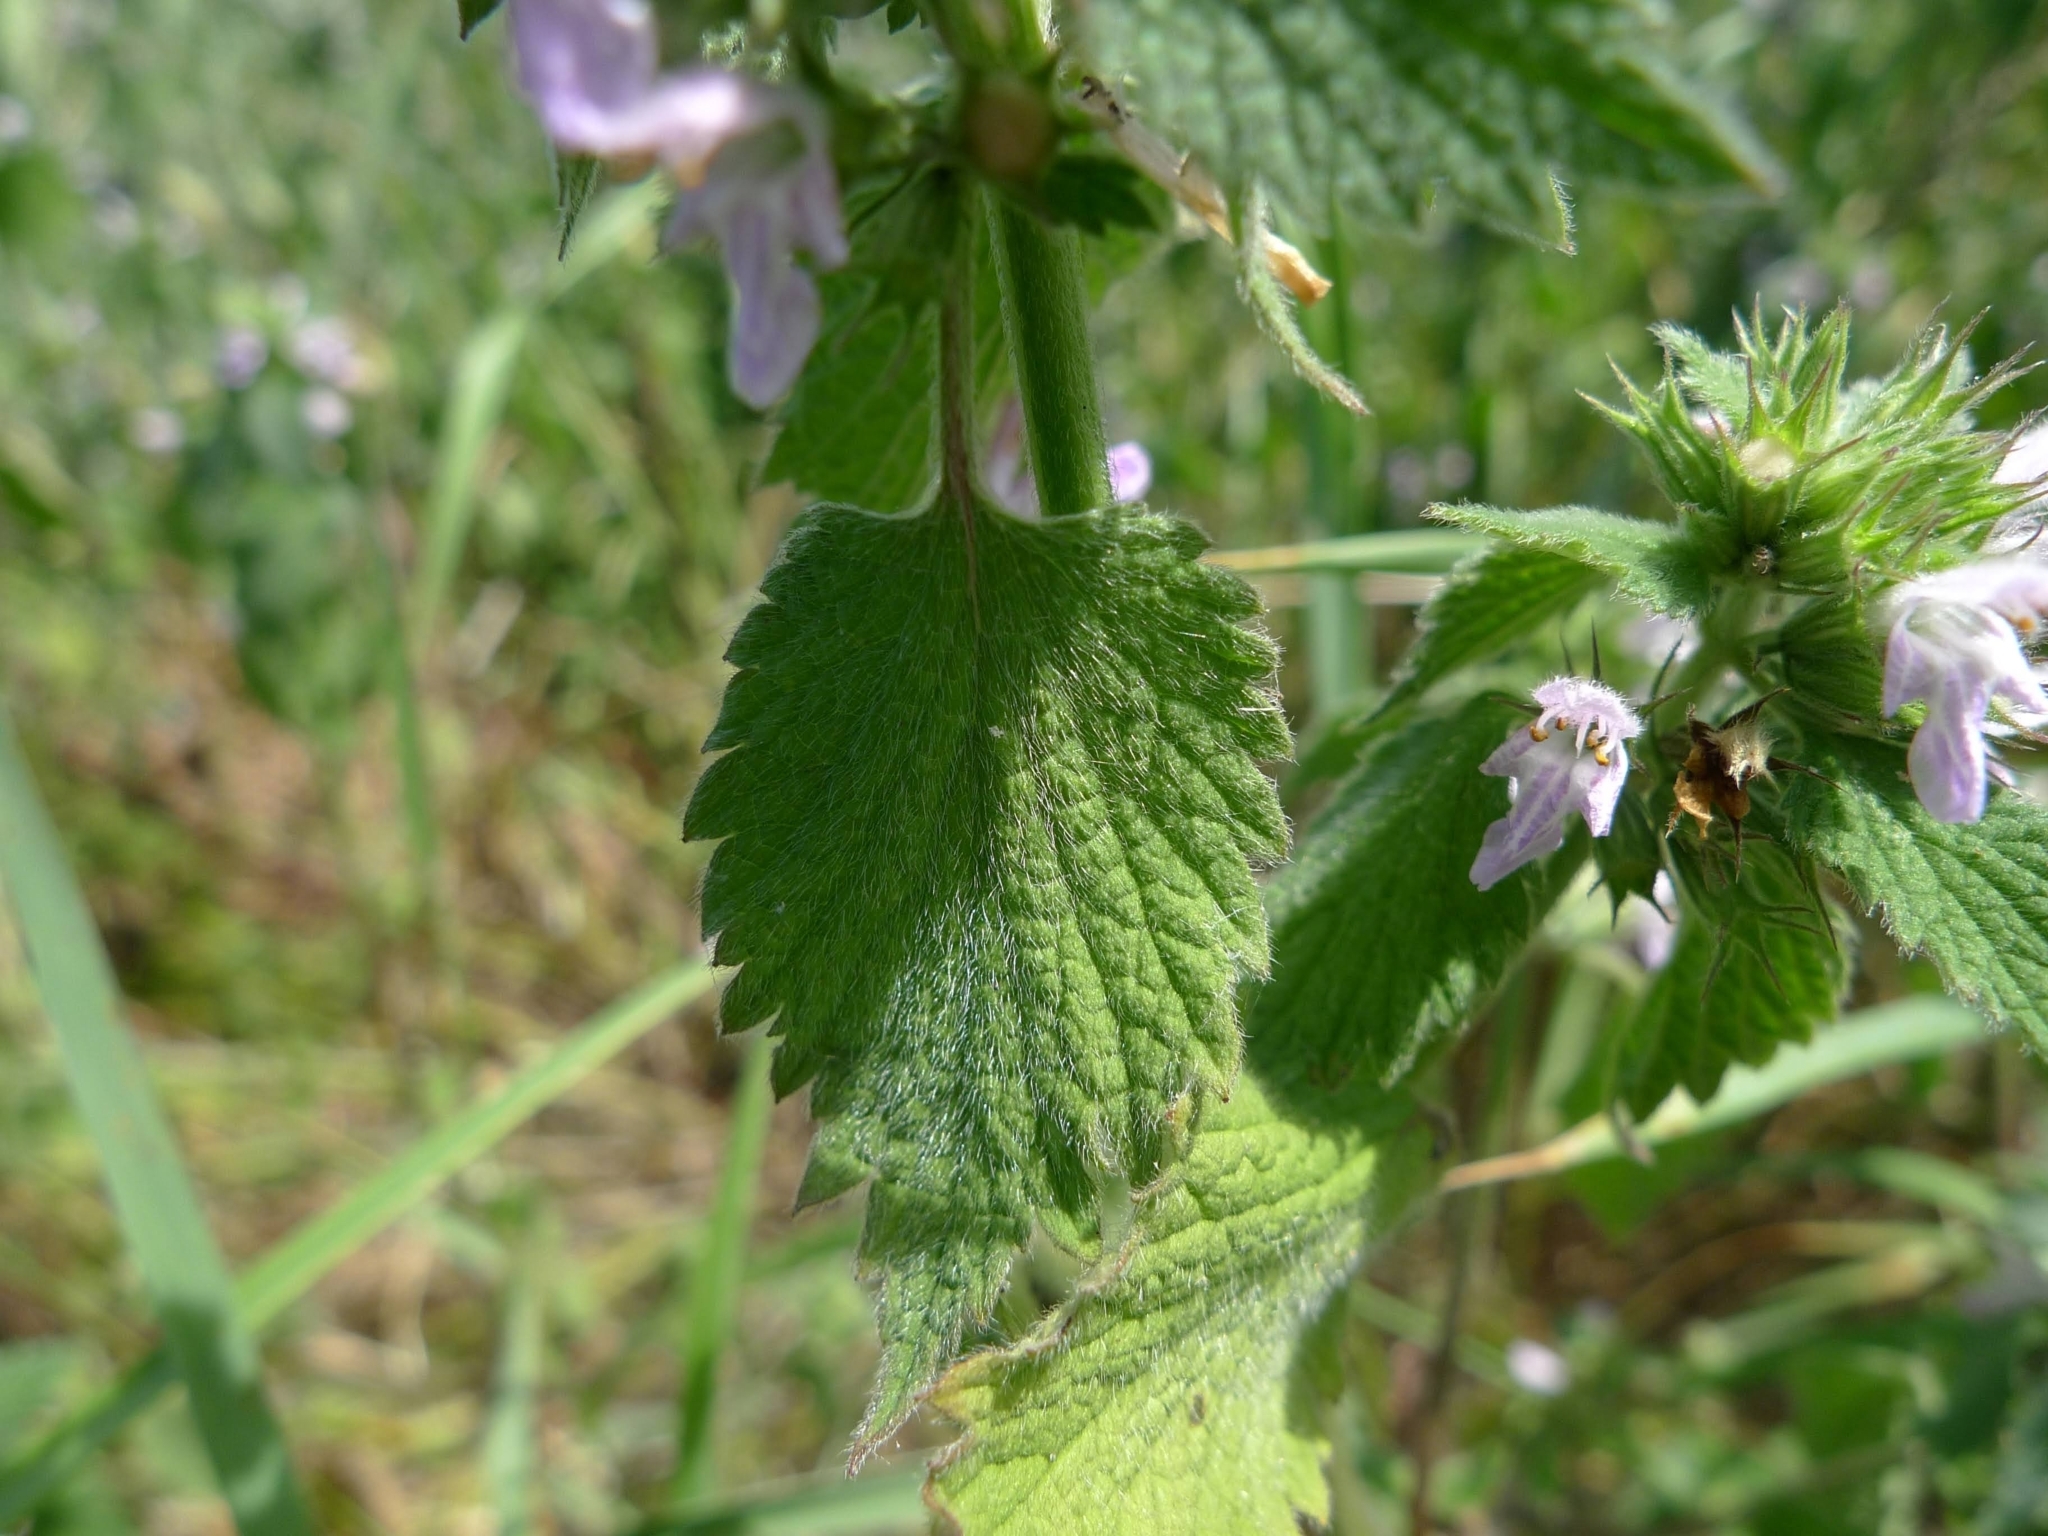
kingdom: Plantae
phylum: Tracheophyta
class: Magnoliopsida
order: Lamiales
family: Lamiaceae
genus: Ballota
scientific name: Ballota nigra
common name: Black horehound
